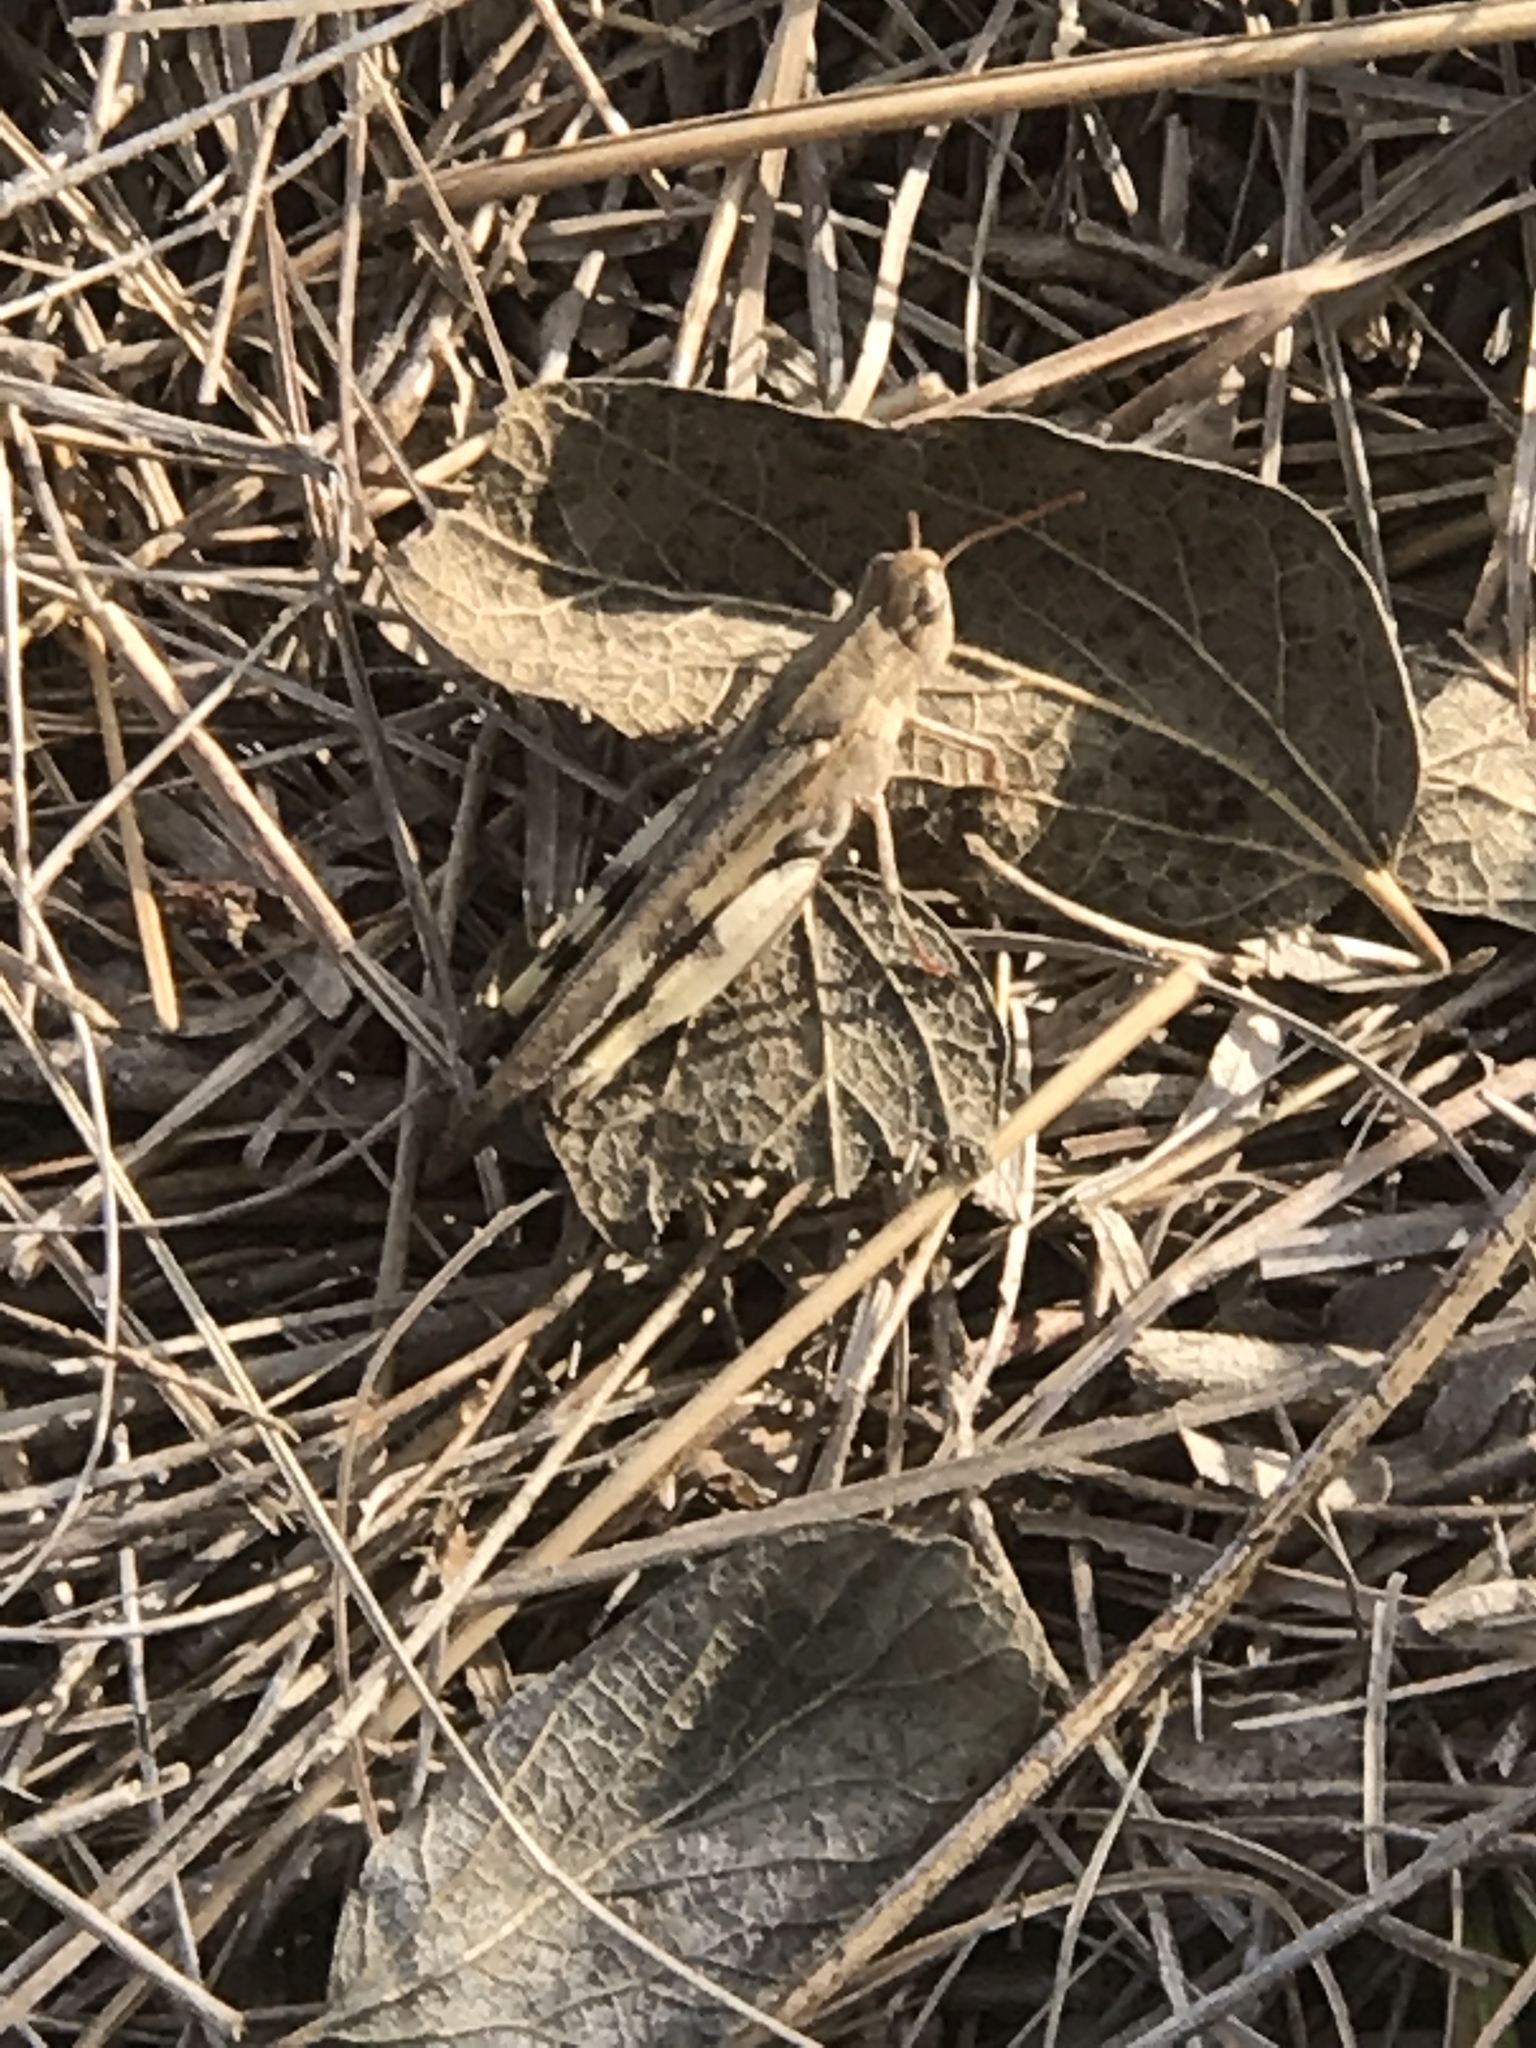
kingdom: Animalia
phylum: Arthropoda
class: Insecta
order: Orthoptera
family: Acrididae
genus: Chortophaga
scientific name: Chortophaga viridifasciata
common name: Green-striped grasshopper
